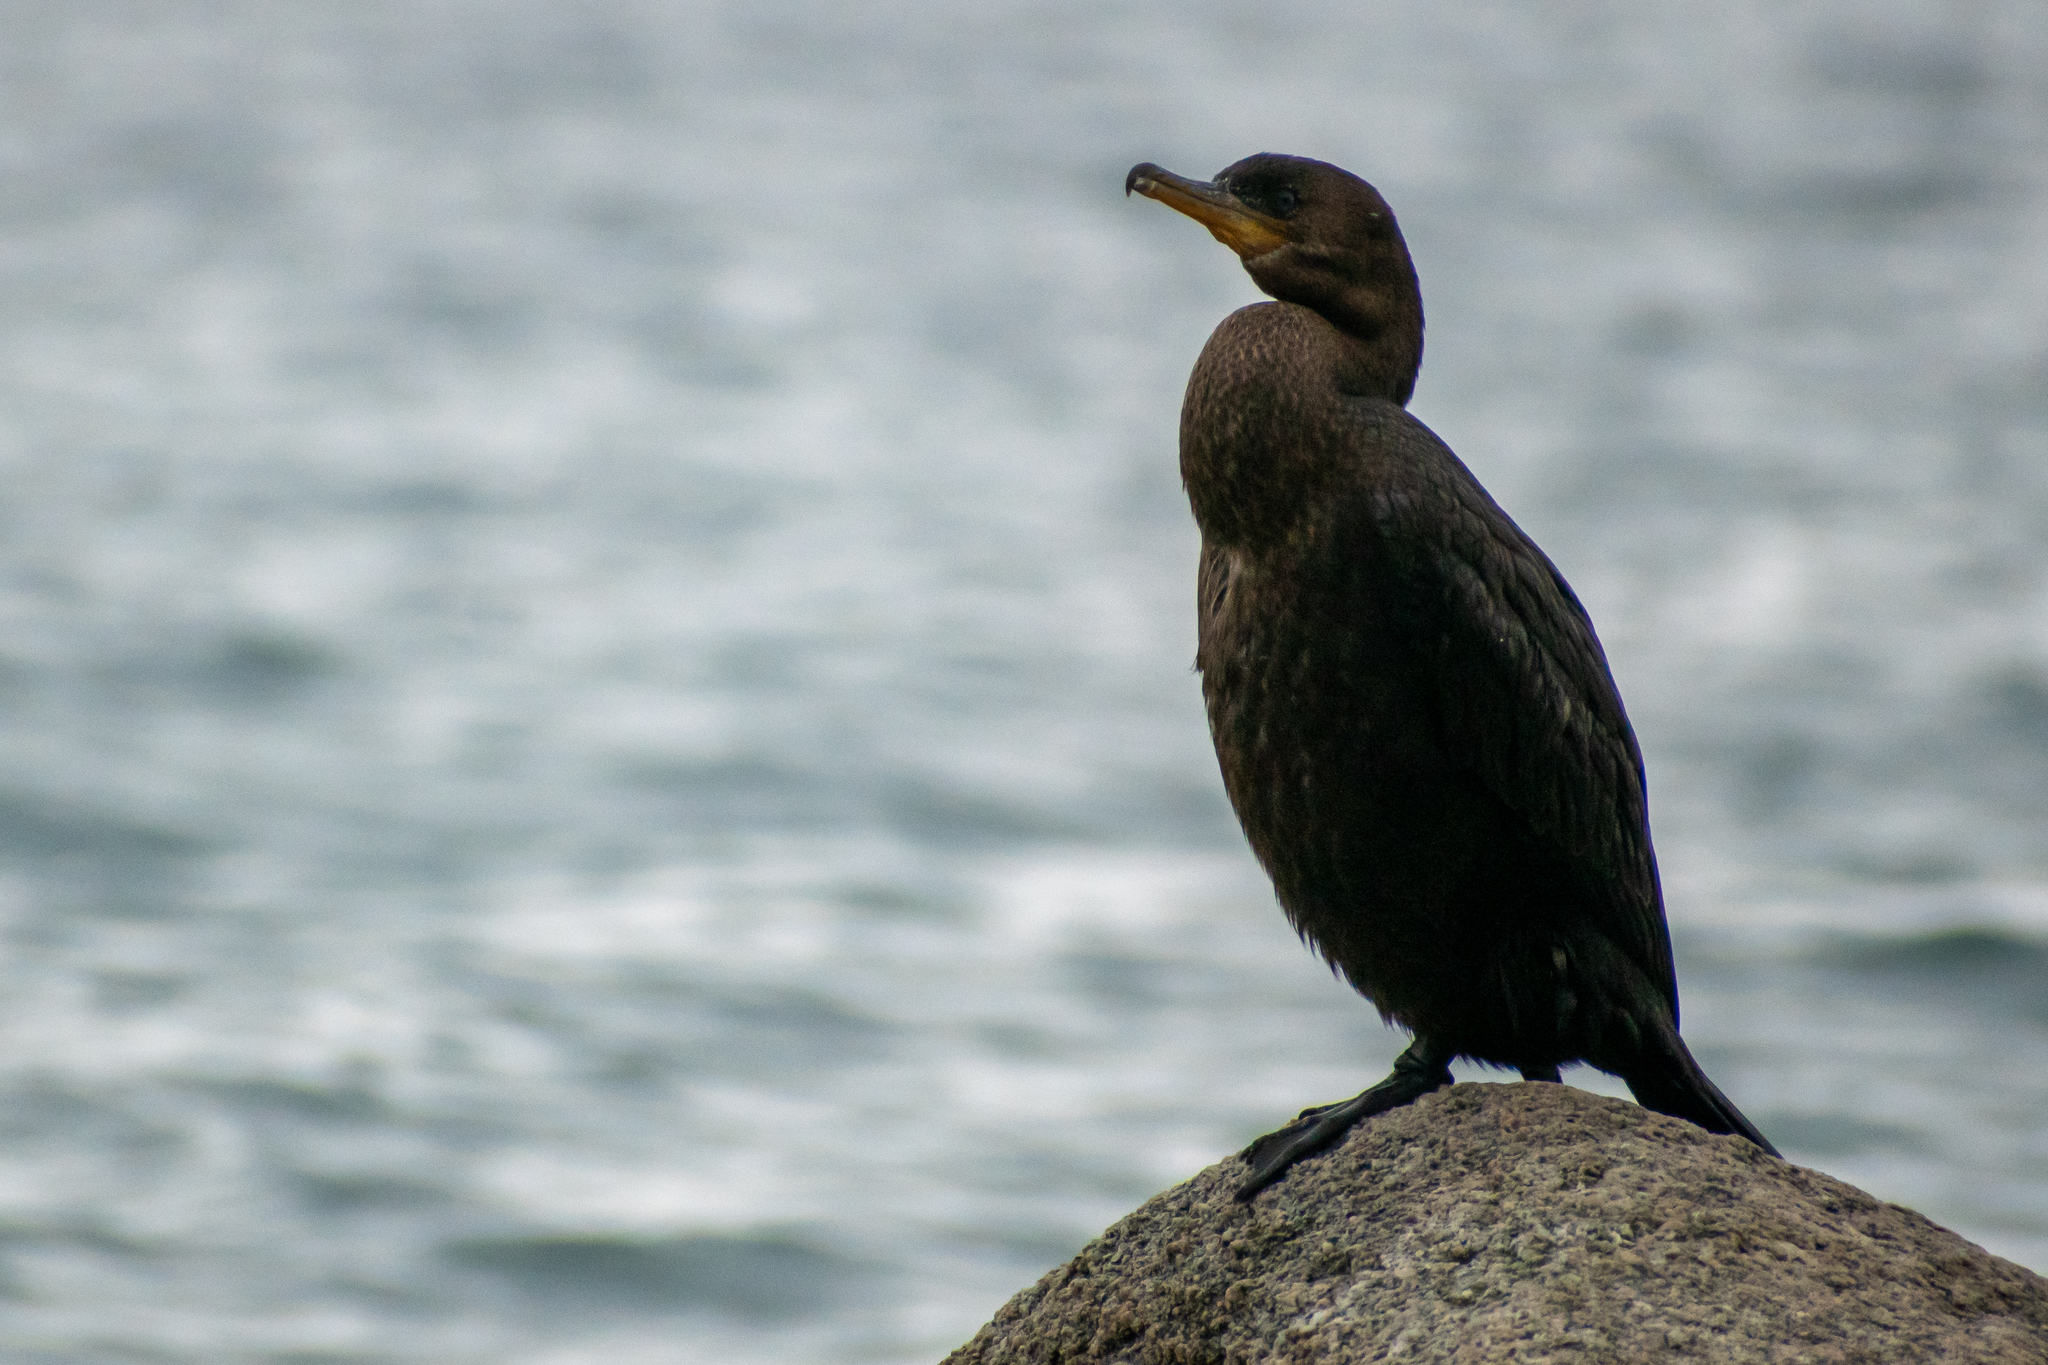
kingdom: Animalia
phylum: Chordata
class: Aves
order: Suliformes
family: Phalacrocoracidae
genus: Phalacrocorax
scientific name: Phalacrocorax brasilianus
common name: Neotropic cormorant
